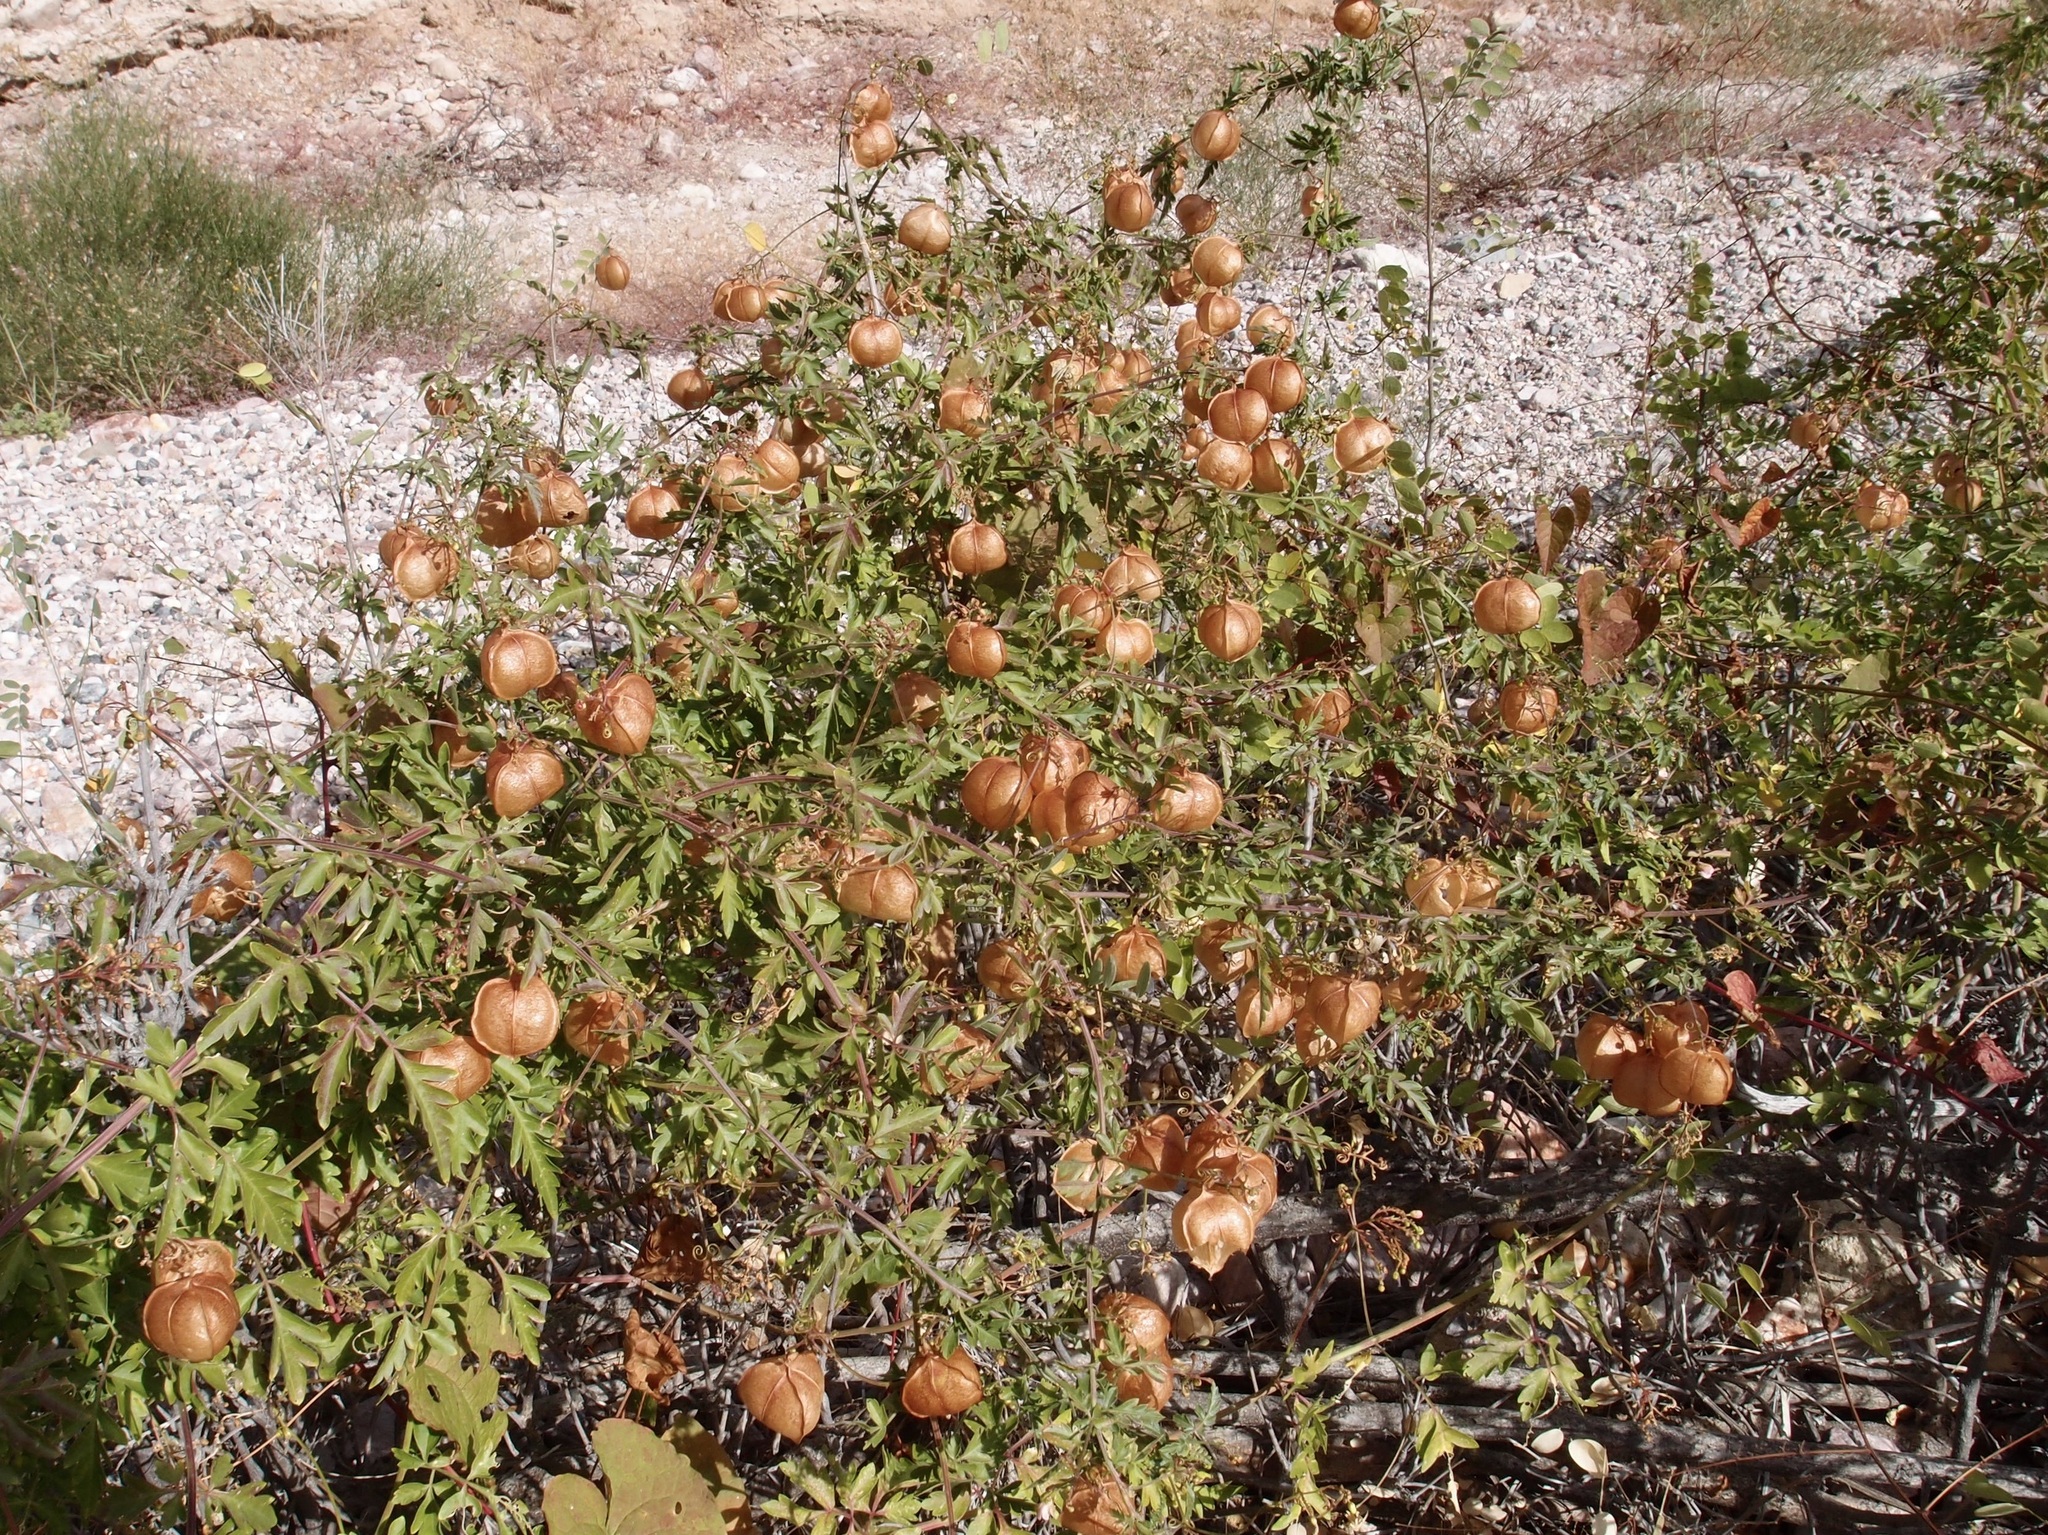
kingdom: Plantae
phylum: Tracheophyta
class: Magnoliopsida
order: Sapindales
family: Sapindaceae
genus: Cardiospermum
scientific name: Cardiospermum corindum
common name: Faux persil
